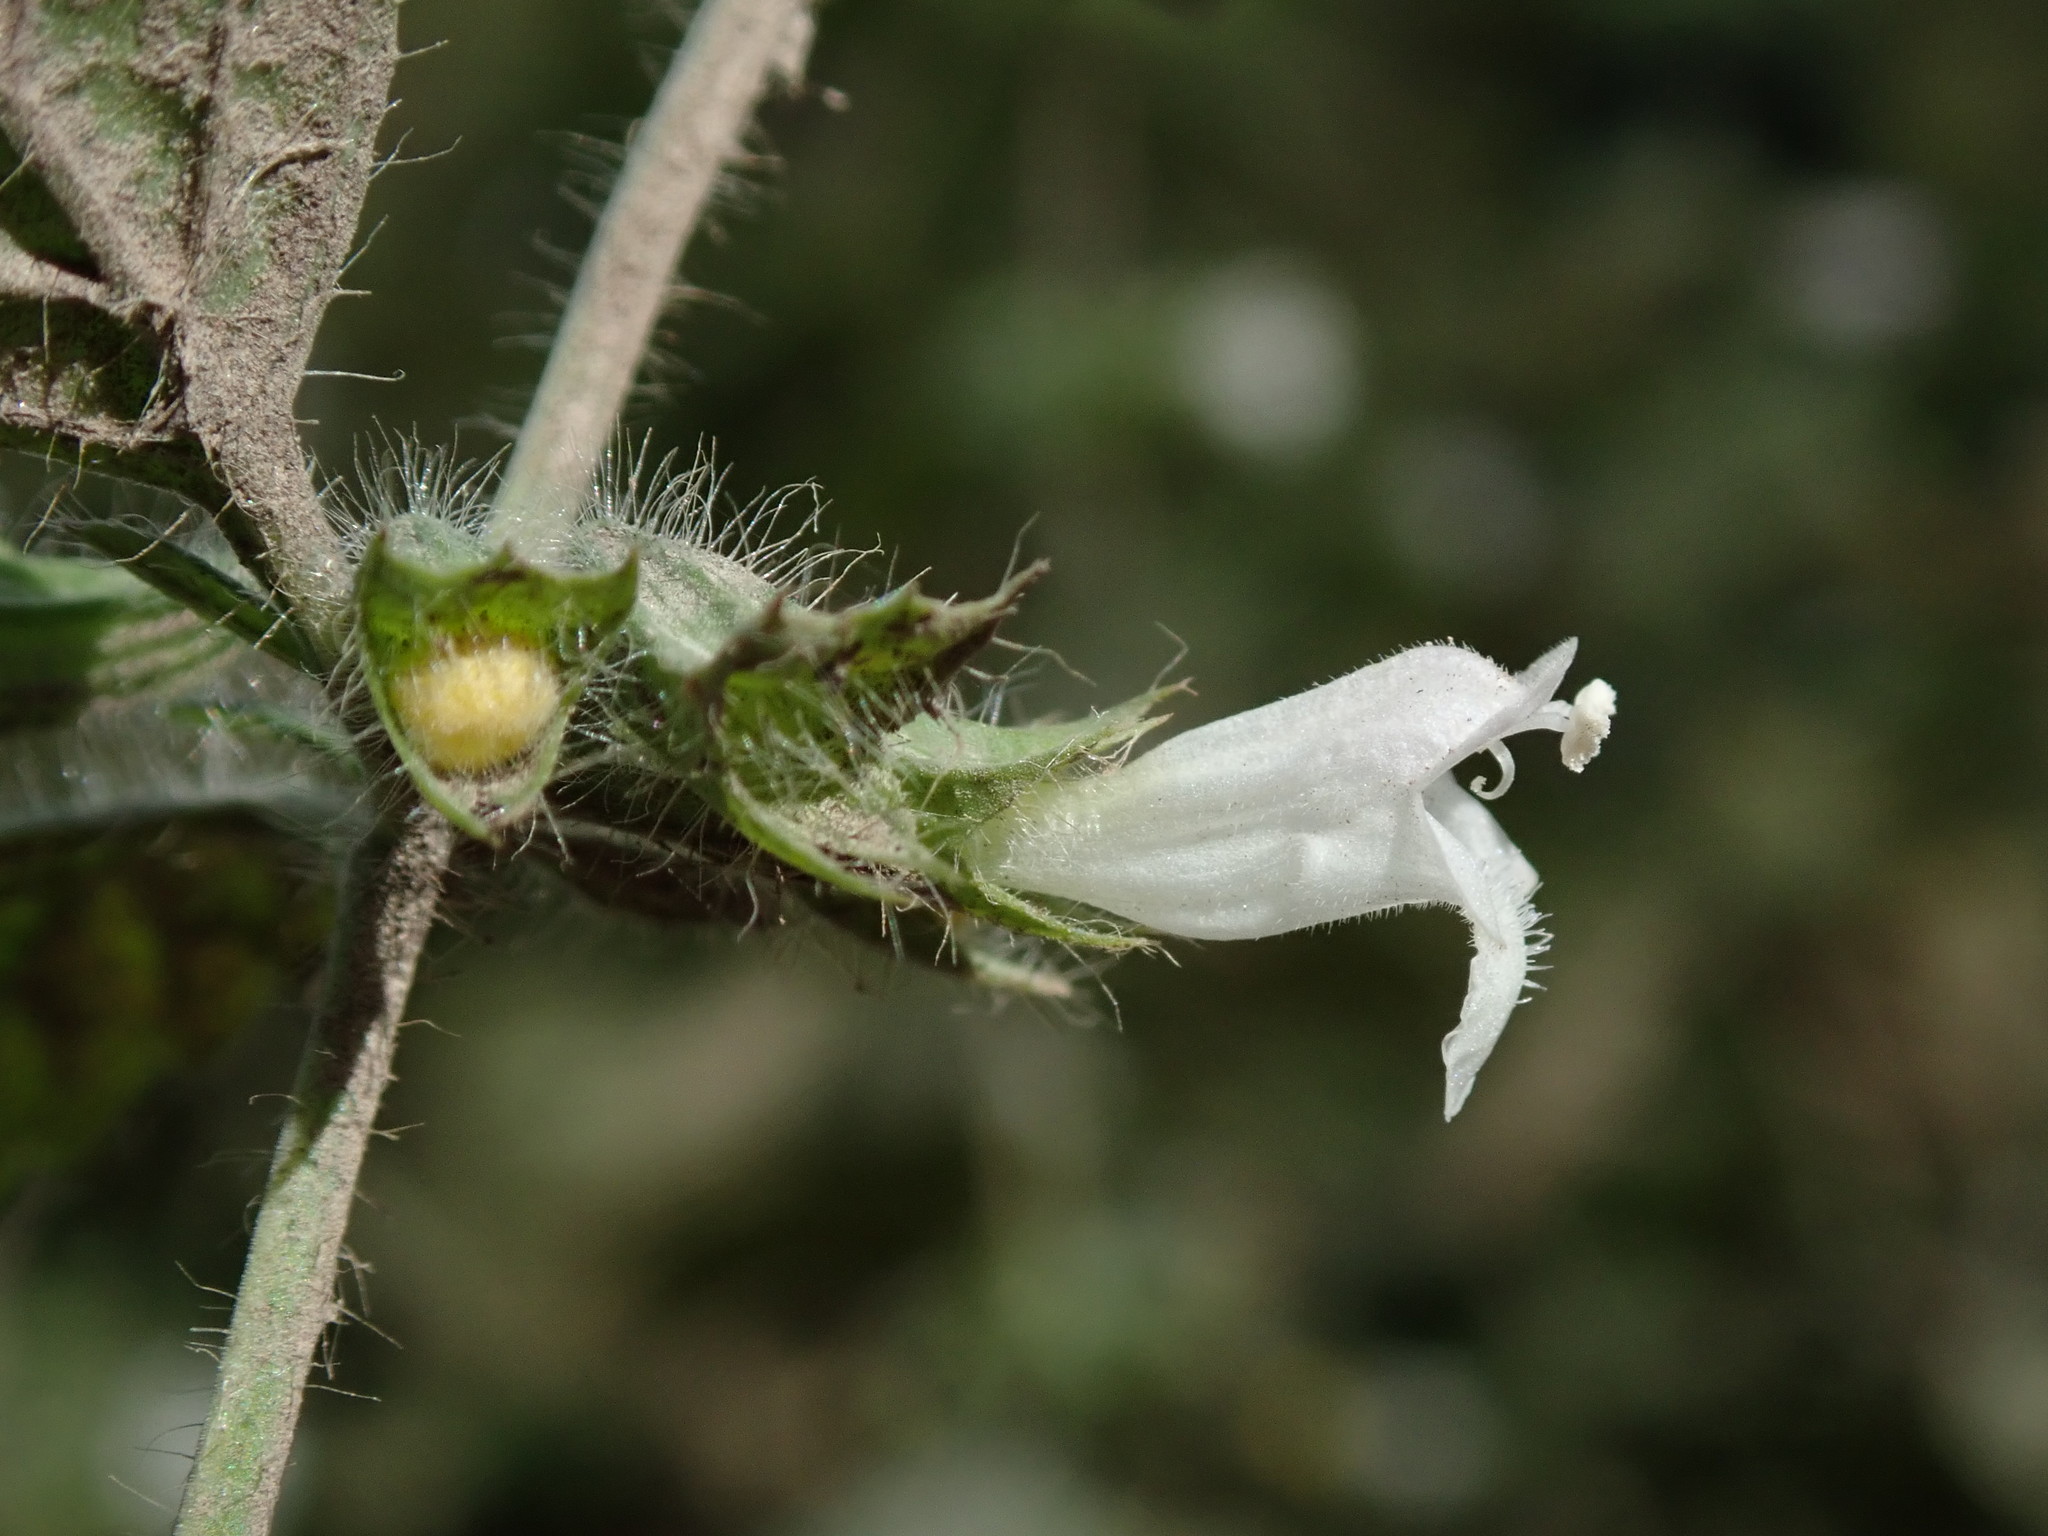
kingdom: Plantae
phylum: Tracheophyta
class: Magnoliopsida
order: Lamiales
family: Lamiaceae
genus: Melissa
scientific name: Melissa officinalis
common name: Balm
